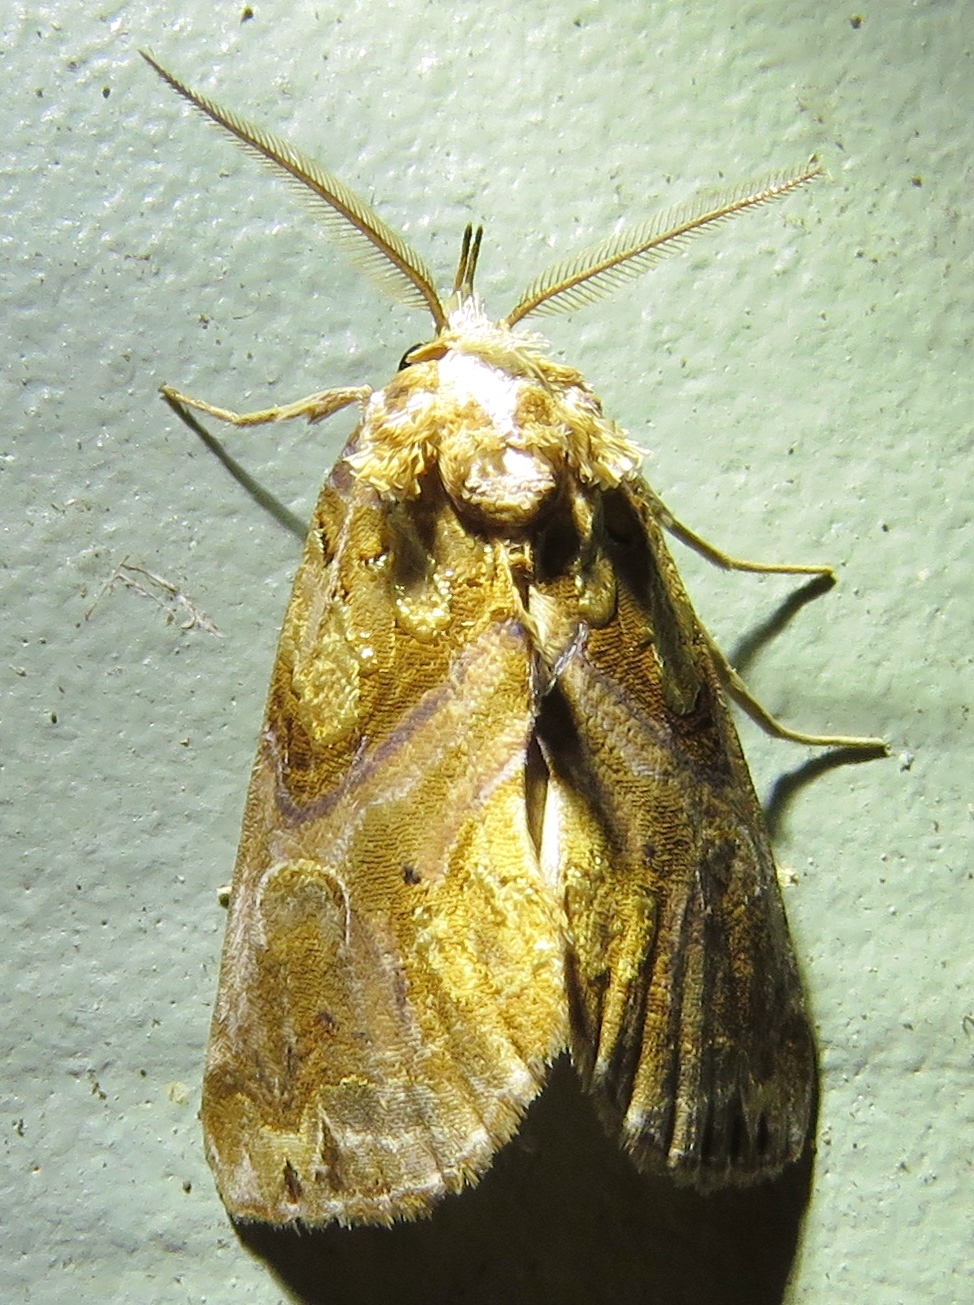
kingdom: Animalia
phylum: Arthropoda
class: Insecta
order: Lepidoptera
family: Erebidae
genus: Plusiodonta
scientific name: Plusiodonta compressipalpis
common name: Moonseed moth
